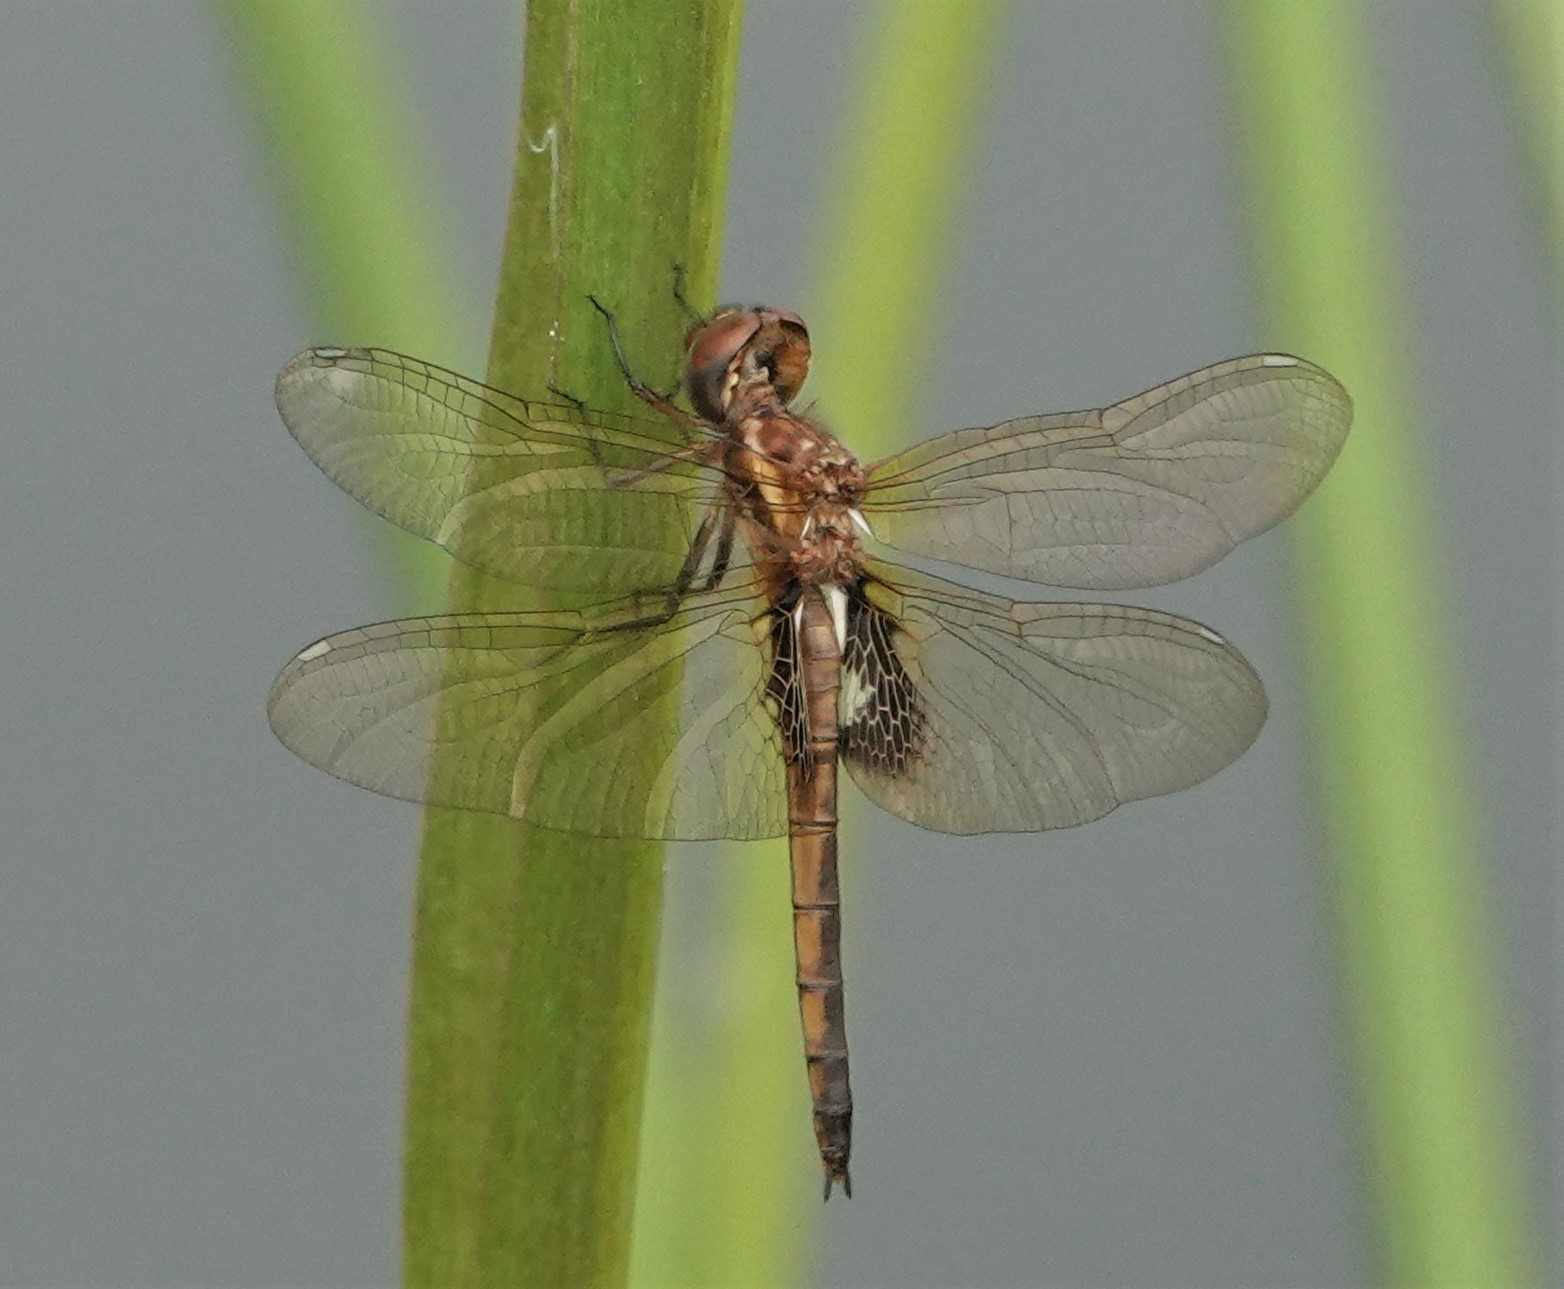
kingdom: Animalia
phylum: Arthropoda
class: Insecta
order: Odonata
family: Libellulidae
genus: Miathyria
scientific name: Miathyria marcella
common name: Hyacinth glider
